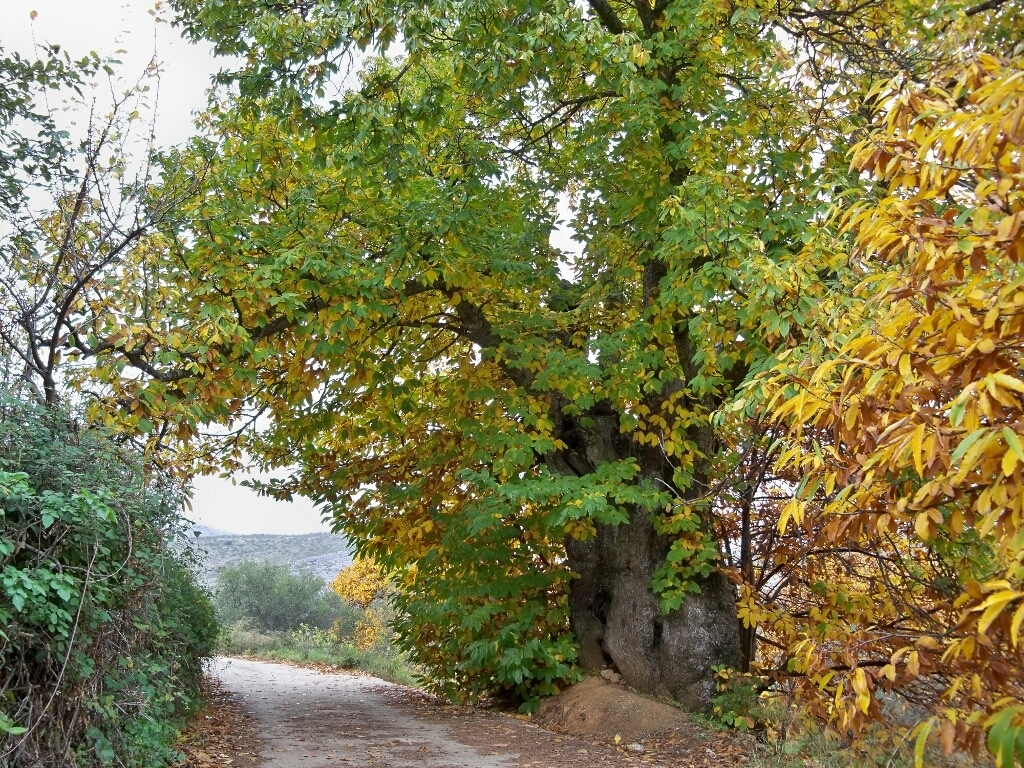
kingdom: Plantae
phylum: Tracheophyta
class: Magnoliopsida
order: Fagales
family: Fagaceae
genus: Castanea
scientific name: Castanea sativa
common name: Sweet chestnut
